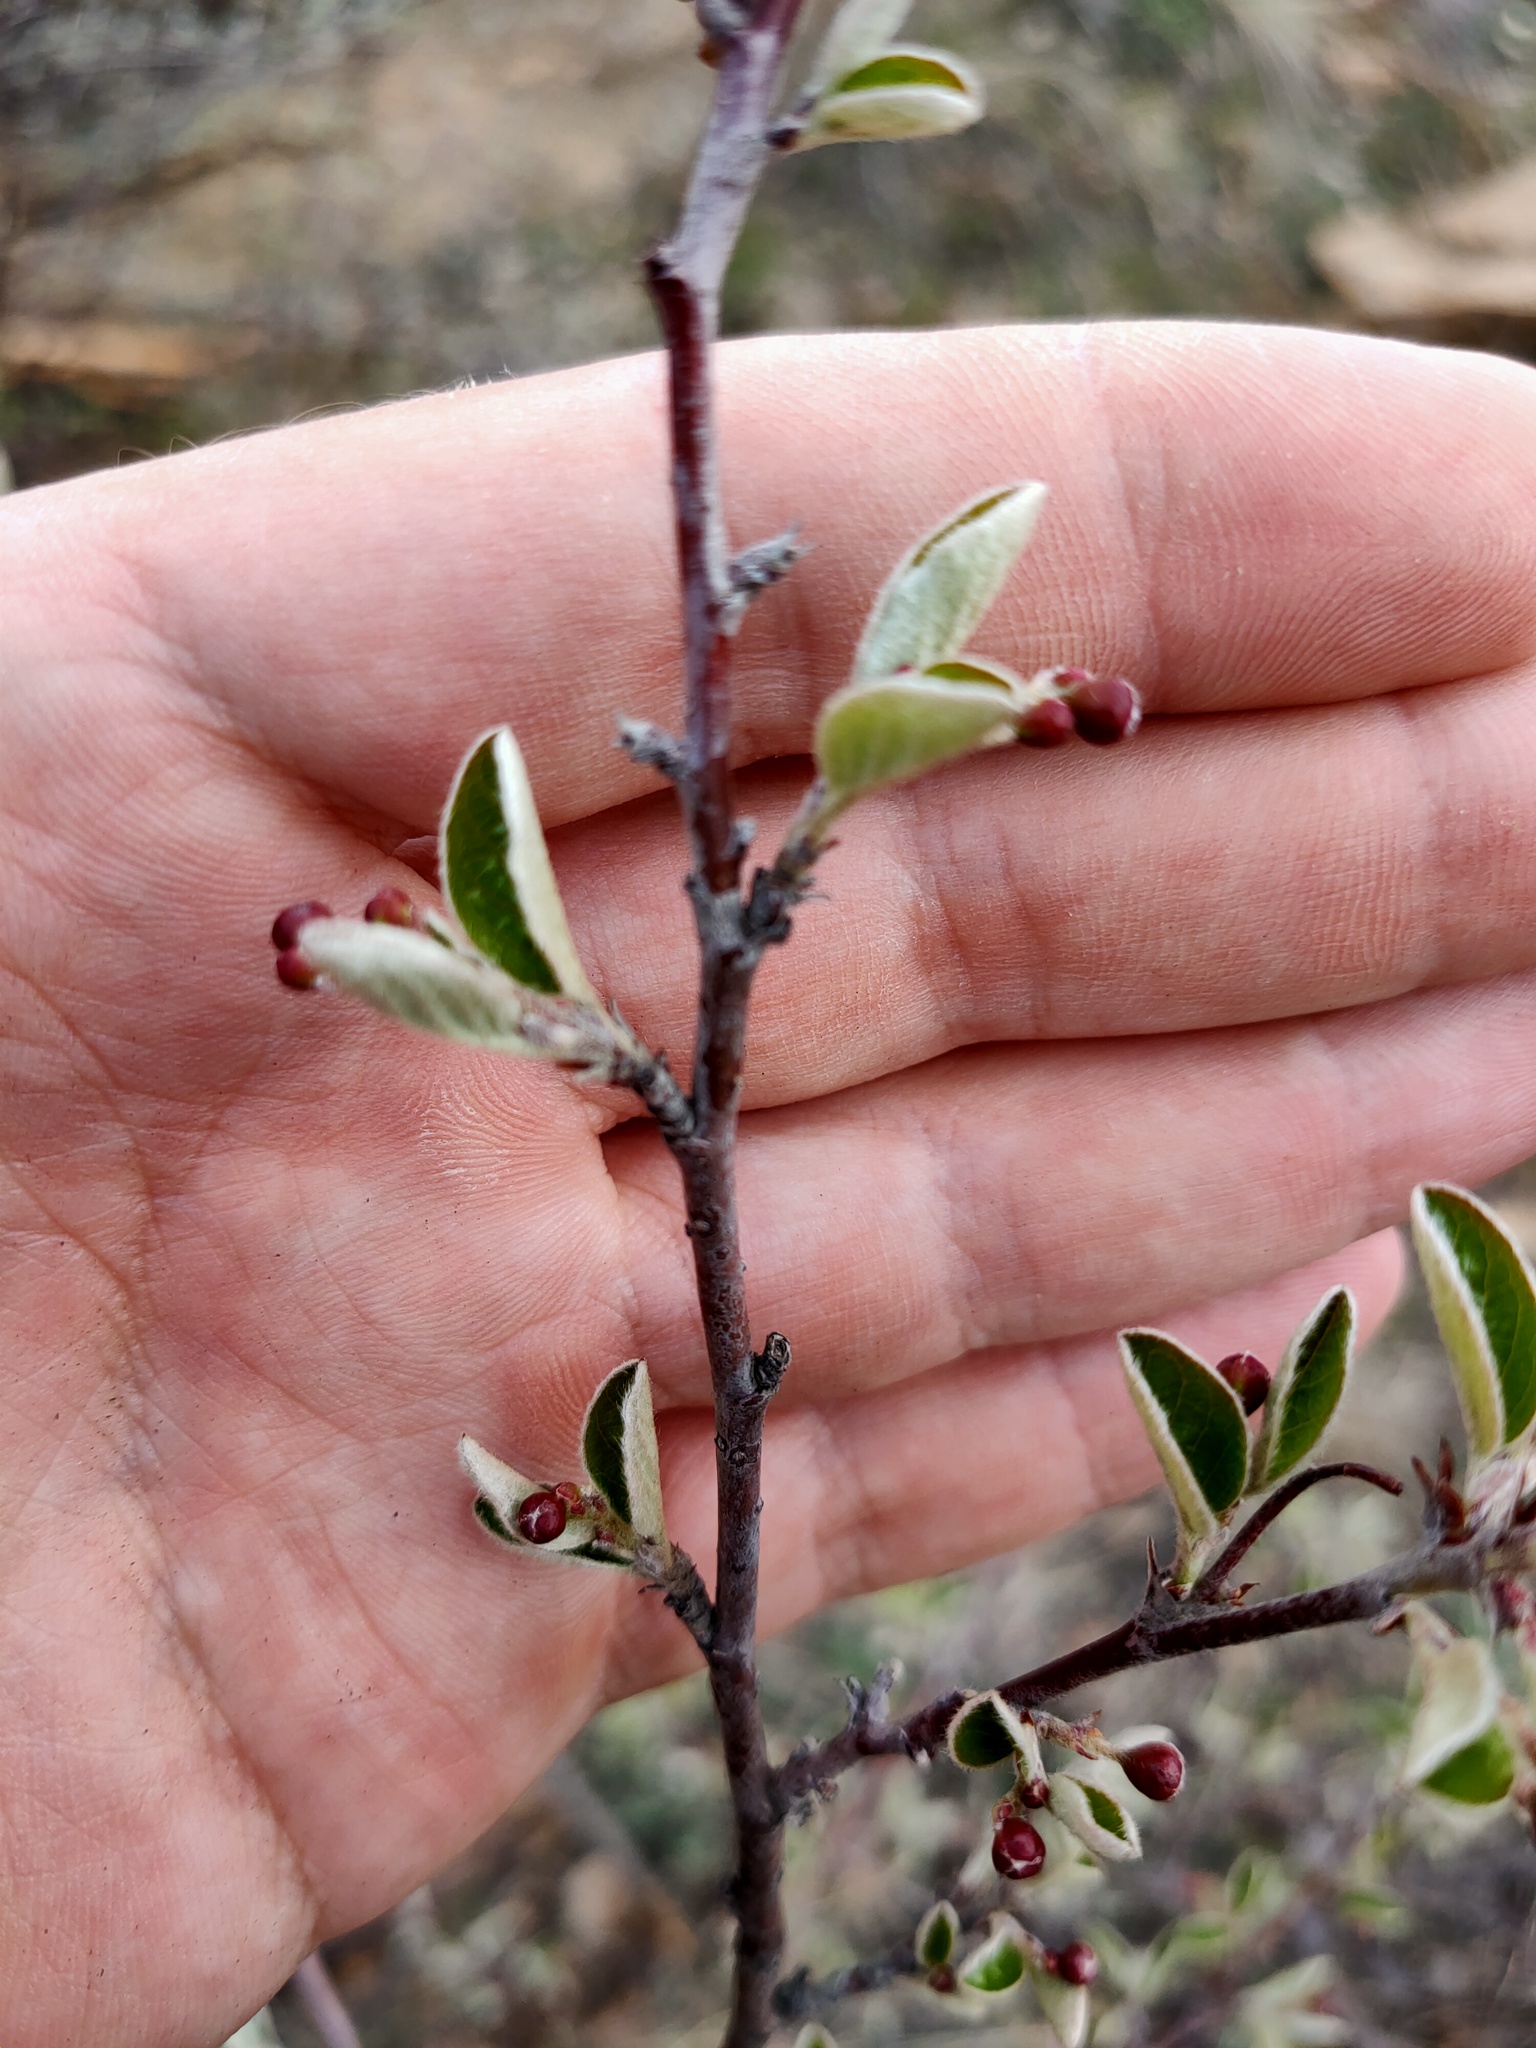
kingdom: Plantae
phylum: Tracheophyta
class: Magnoliopsida
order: Rosales
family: Rosaceae
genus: Cotoneaster
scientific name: Cotoneaster melanocarpus
